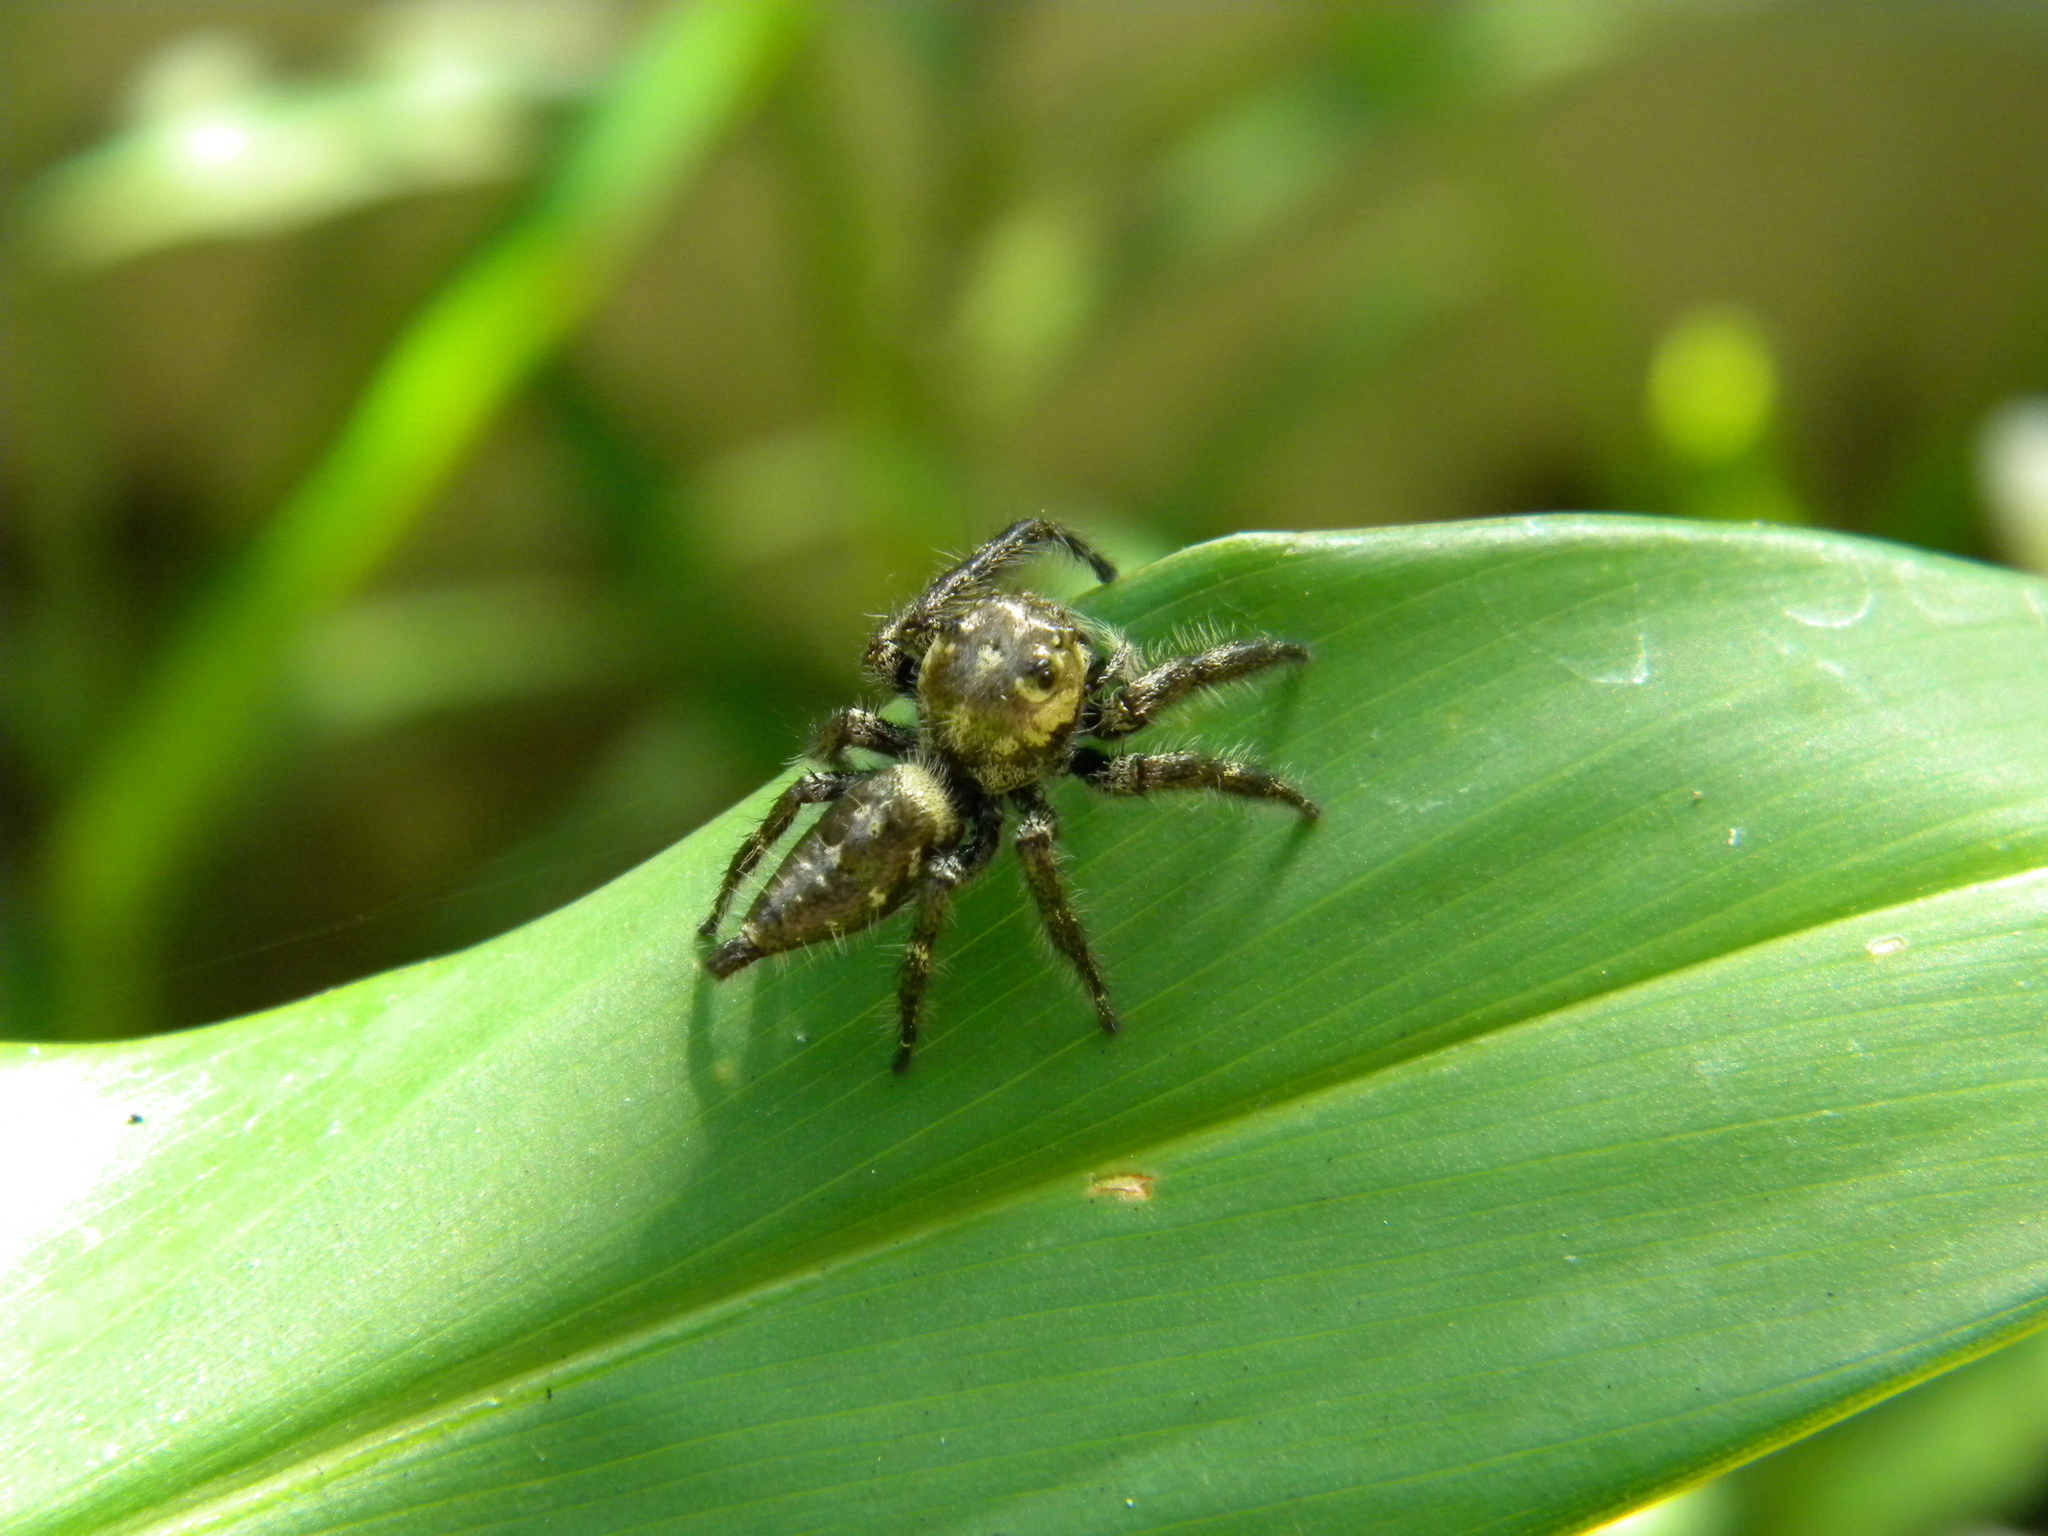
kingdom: Animalia
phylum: Arthropoda
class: Arachnida
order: Araneae
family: Salticidae
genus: Hyllus
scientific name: Hyllus semicupreus
